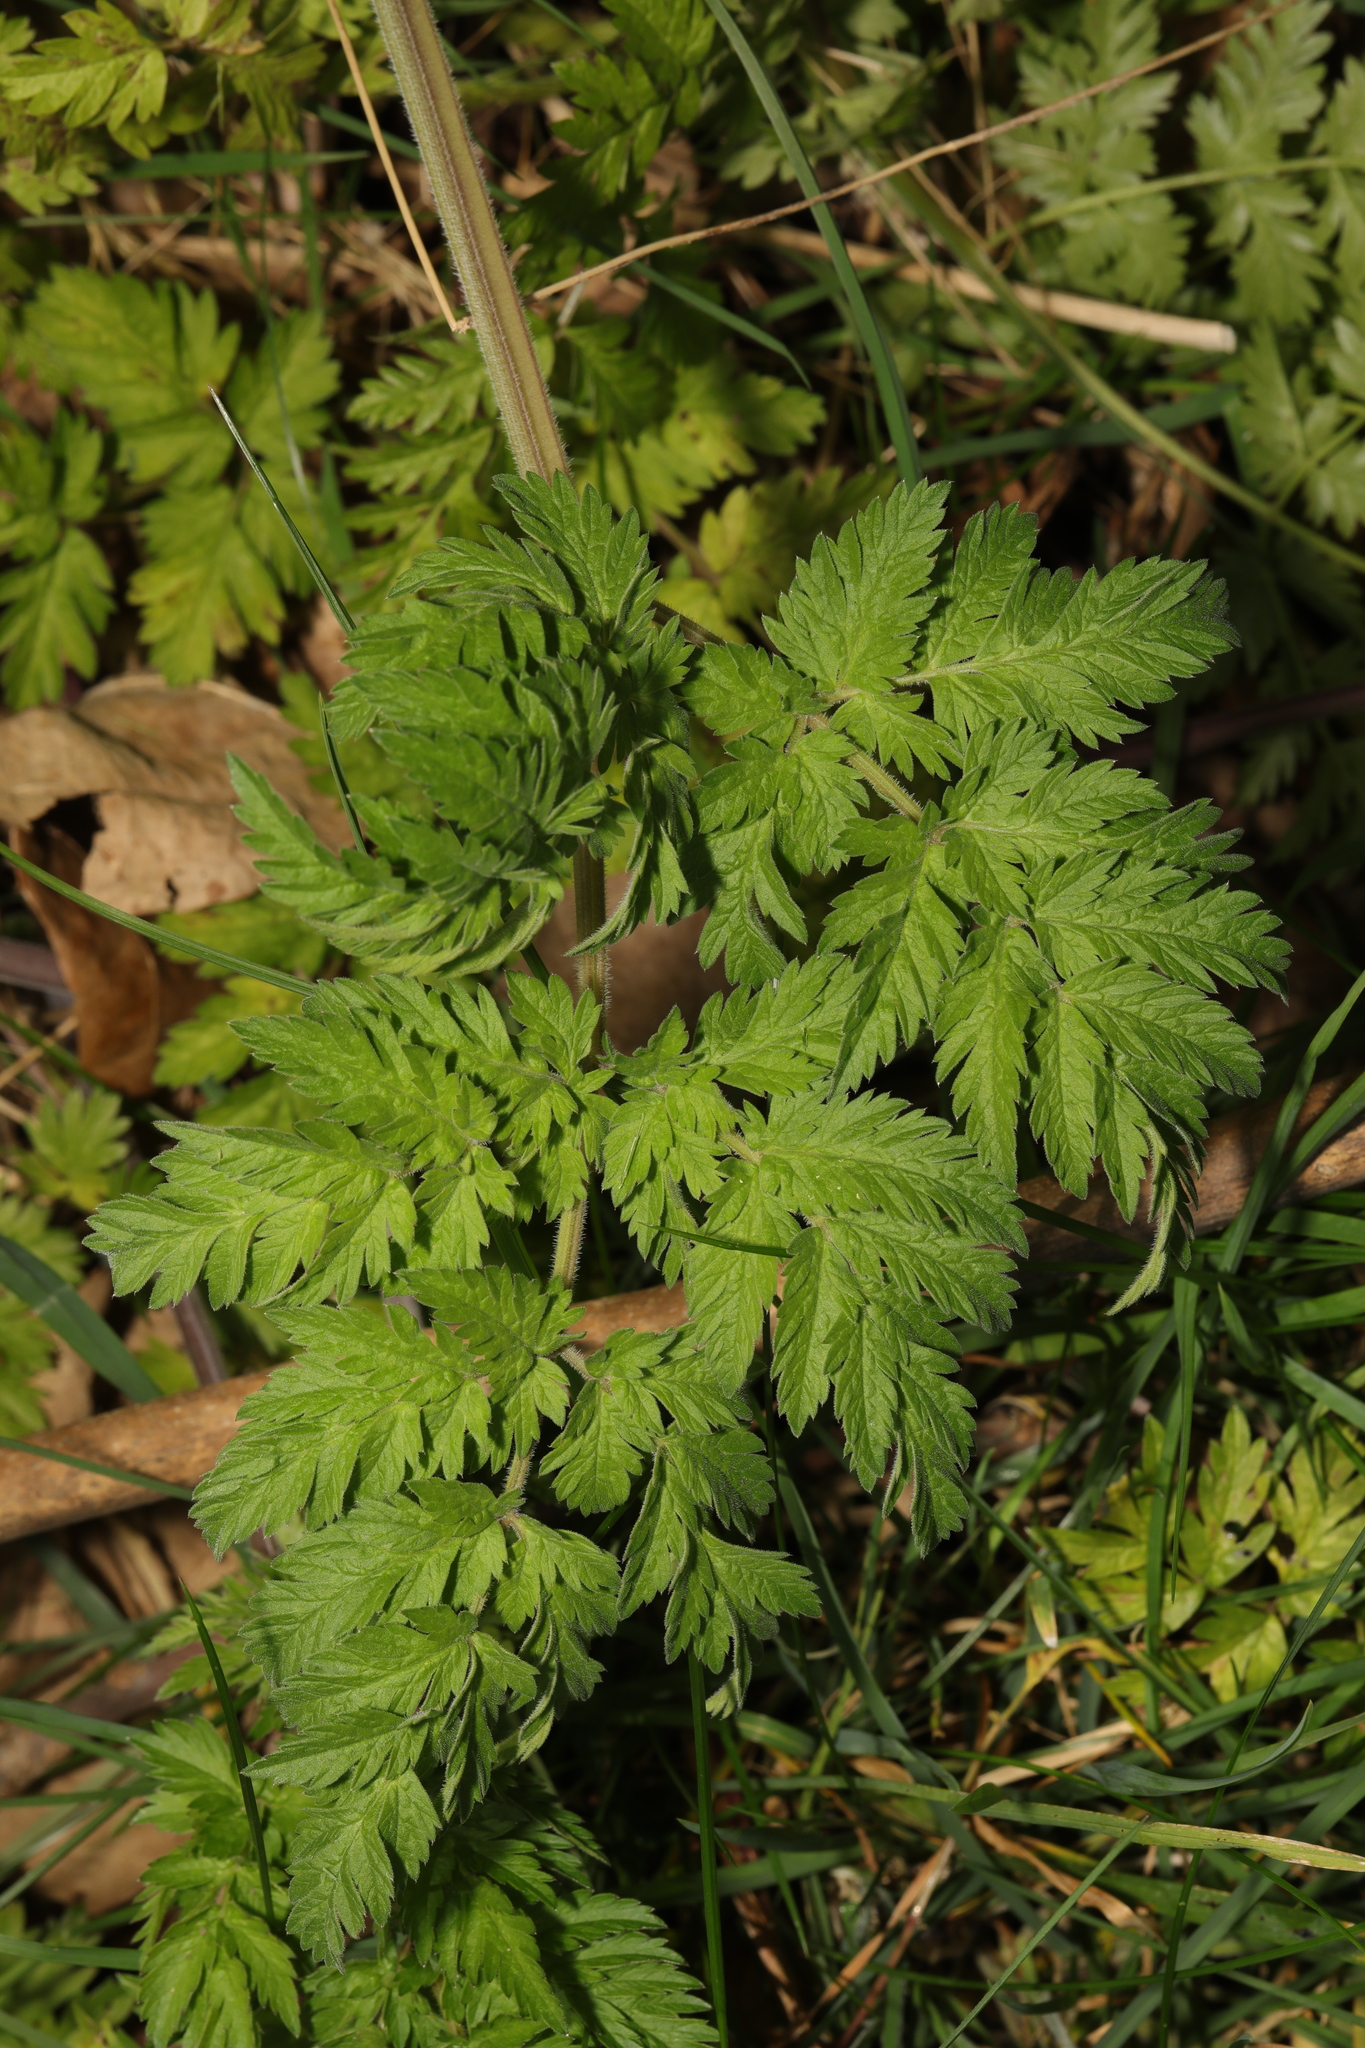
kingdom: Plantae
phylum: Tracheophyta
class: Magnoliopsida
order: Apiales
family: Apiaceae
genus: Anthriscus
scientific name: Anthriscus sylvestris
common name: Cow parsley
